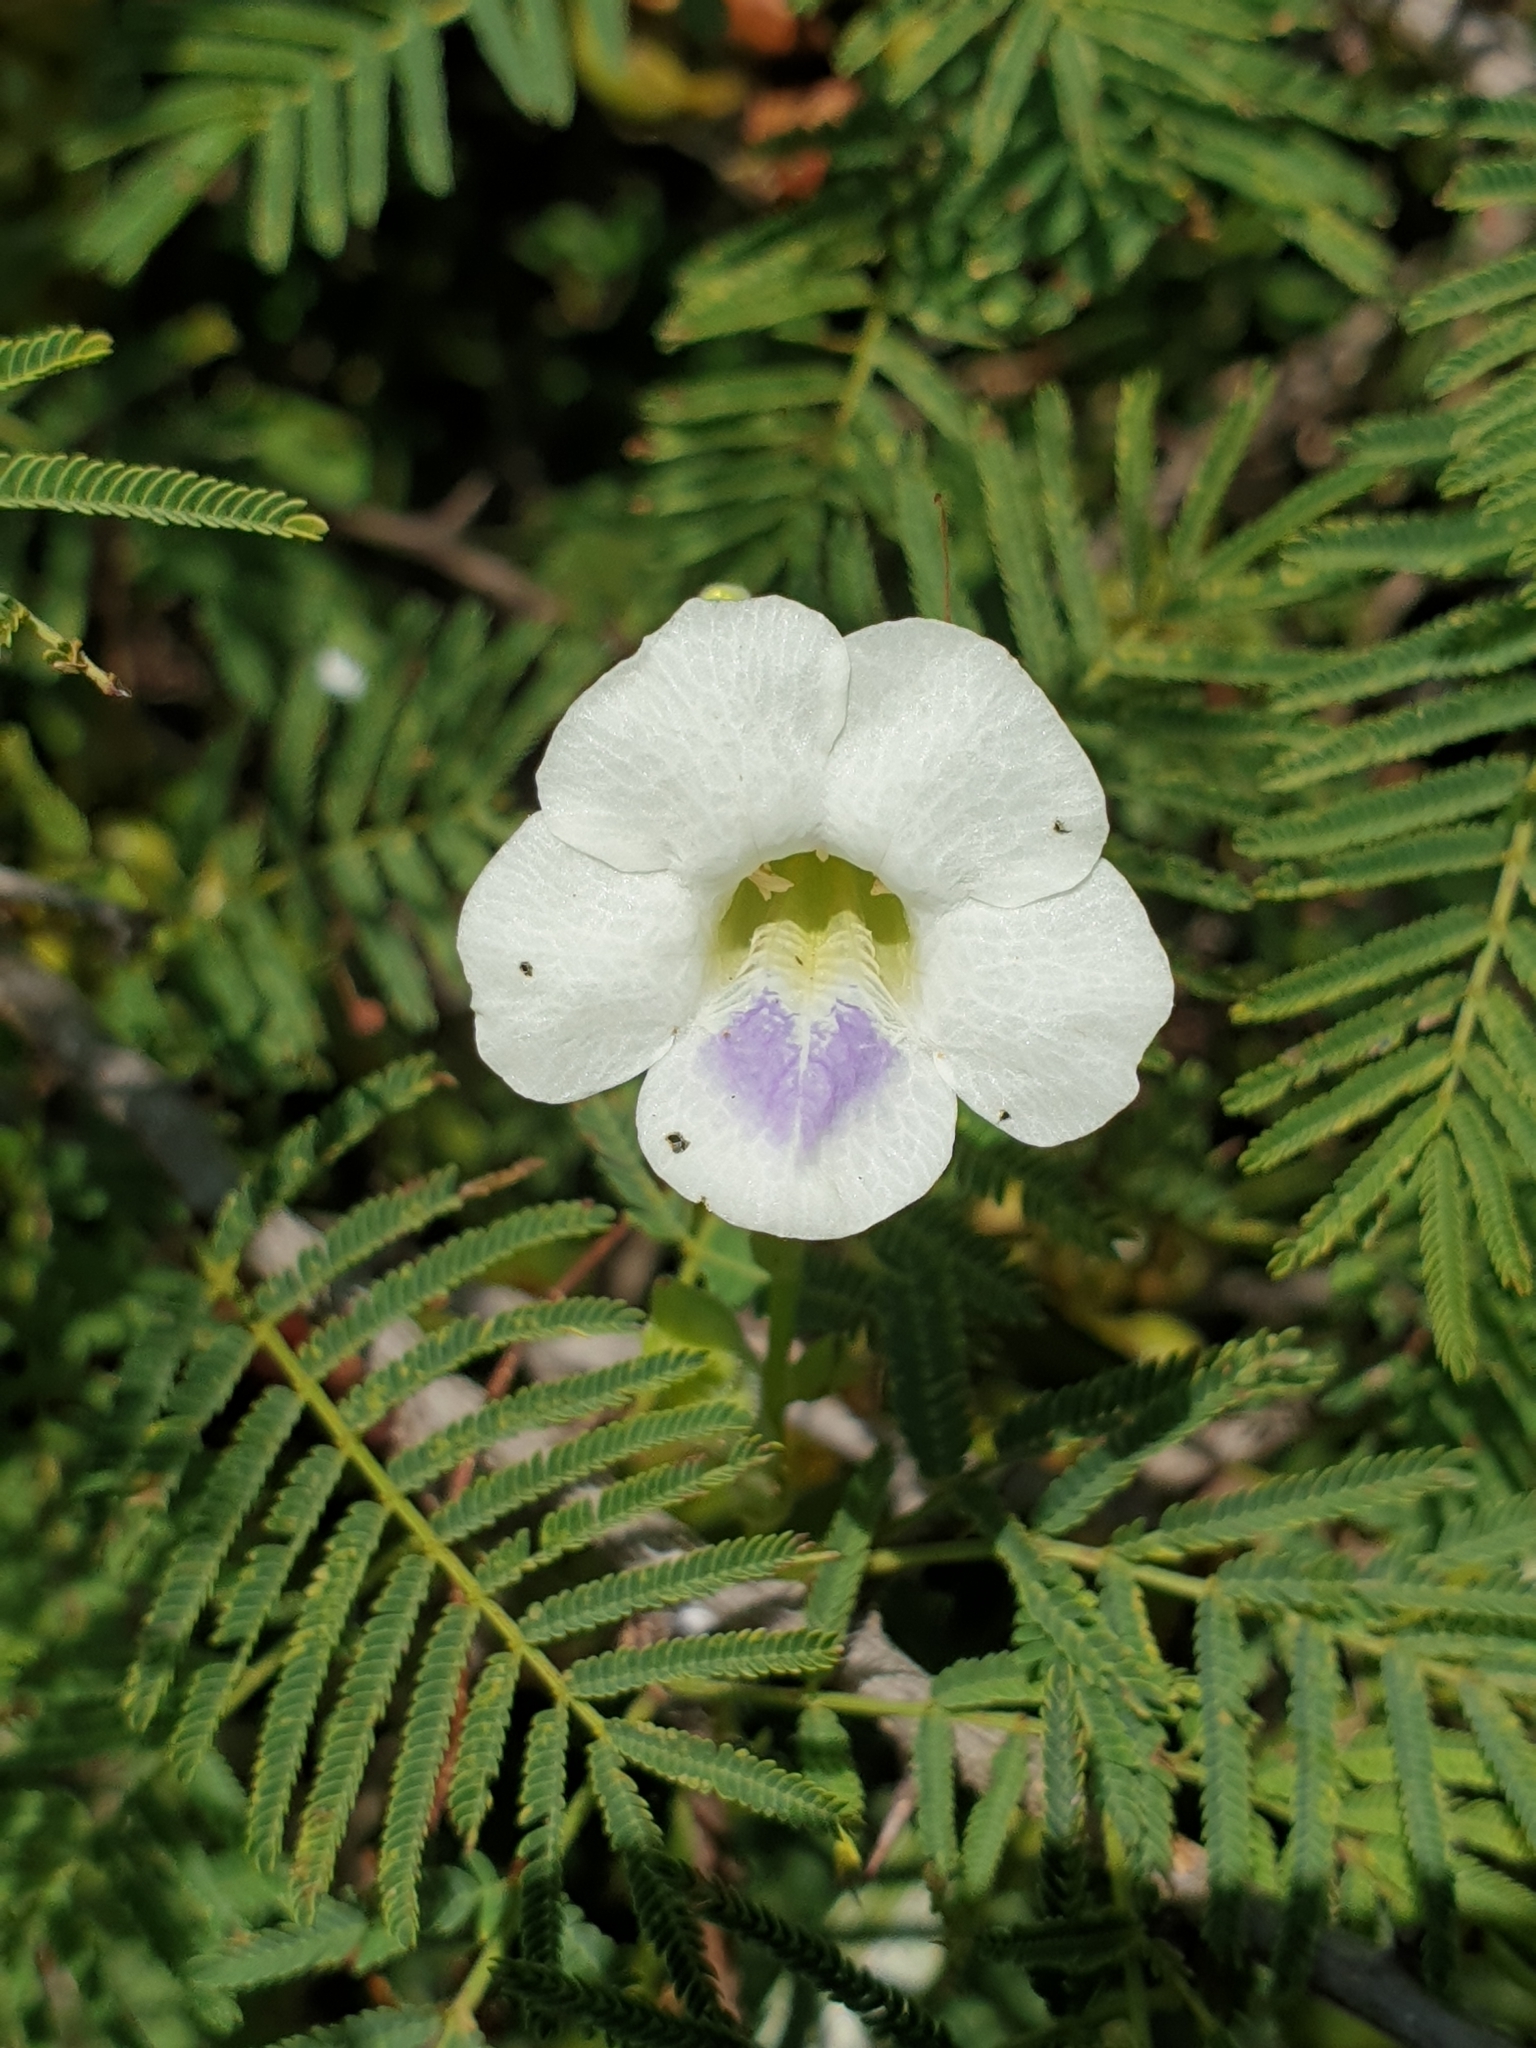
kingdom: Plantae
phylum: Tracheophyta
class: Magnoliopsida
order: Lamiales
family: Acanthaceae
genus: Asystasia
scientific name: Asystasia gangetica
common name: Chinese violet
